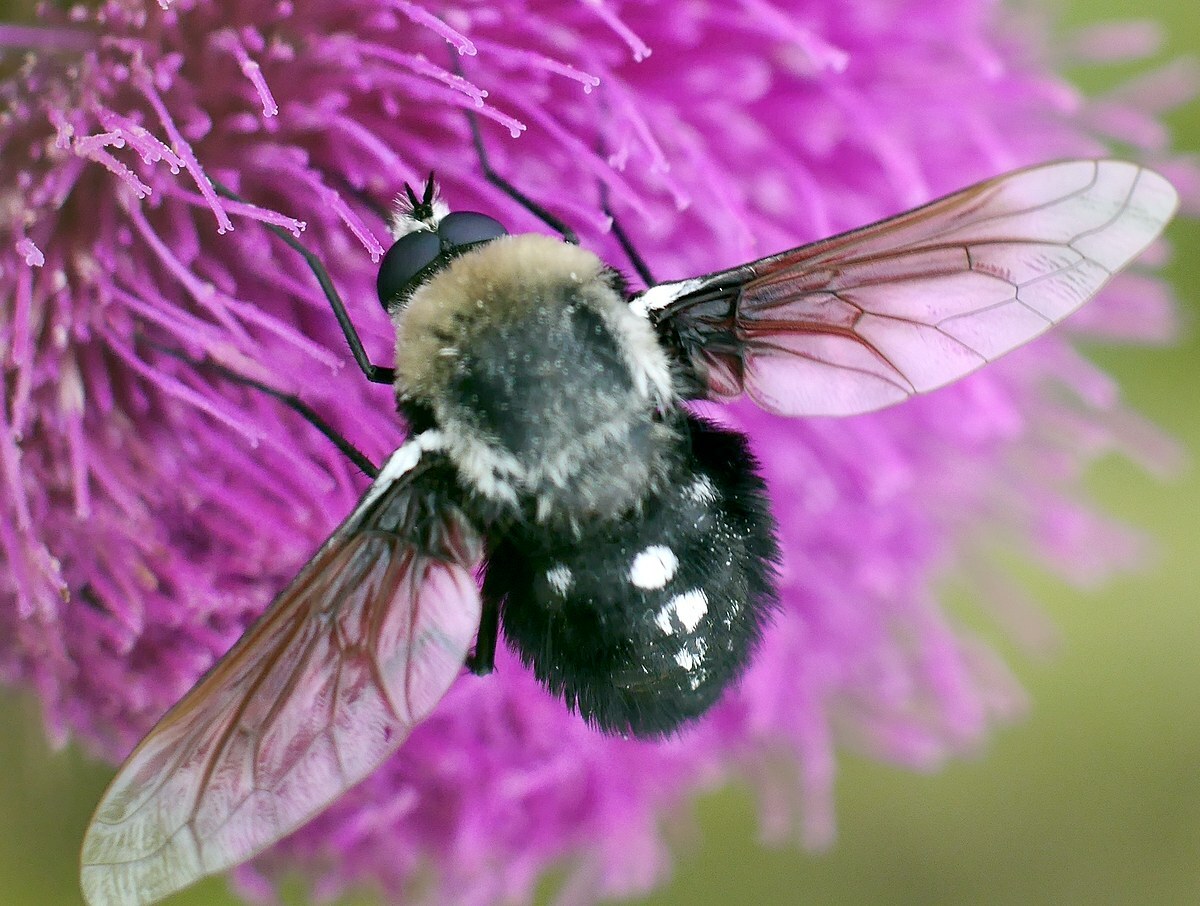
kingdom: Animalia
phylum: Arthropoda
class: Insecta
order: Diptera
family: Bombyliidae
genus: Bombomyia
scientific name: Bombomyia vertebralis
